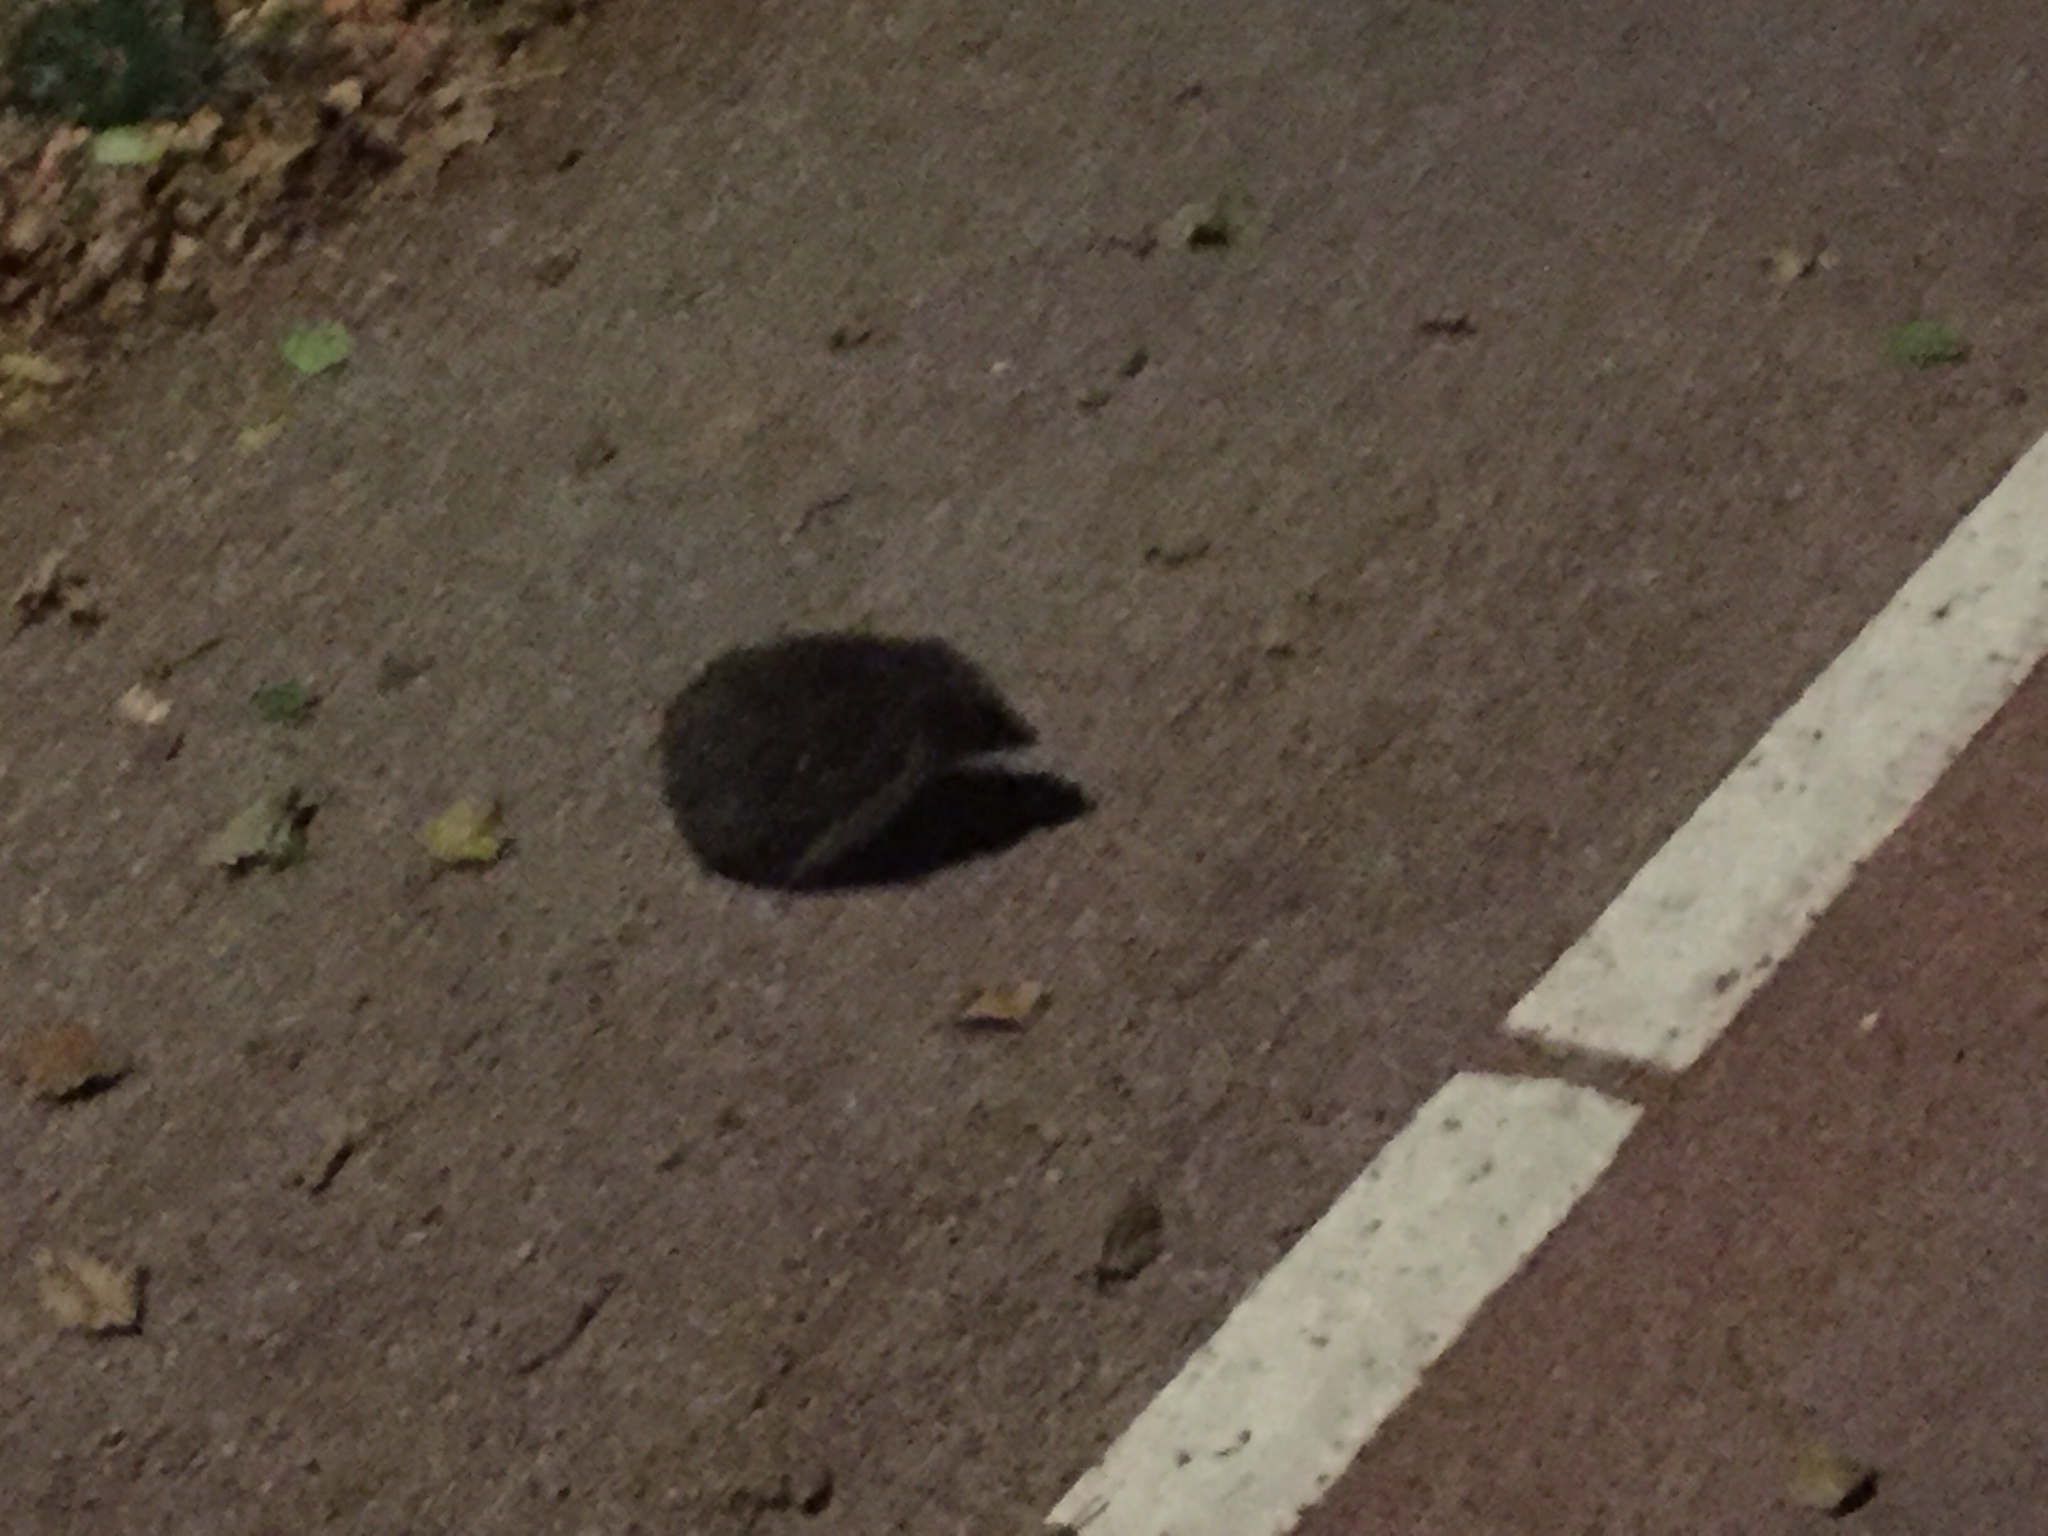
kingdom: Animalia
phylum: Chordata
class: Mammalia
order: Erinaceomorpha
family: Erinaceidae
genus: Erinaceus
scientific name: Erinaceus europaeus
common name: West european hedgehog
